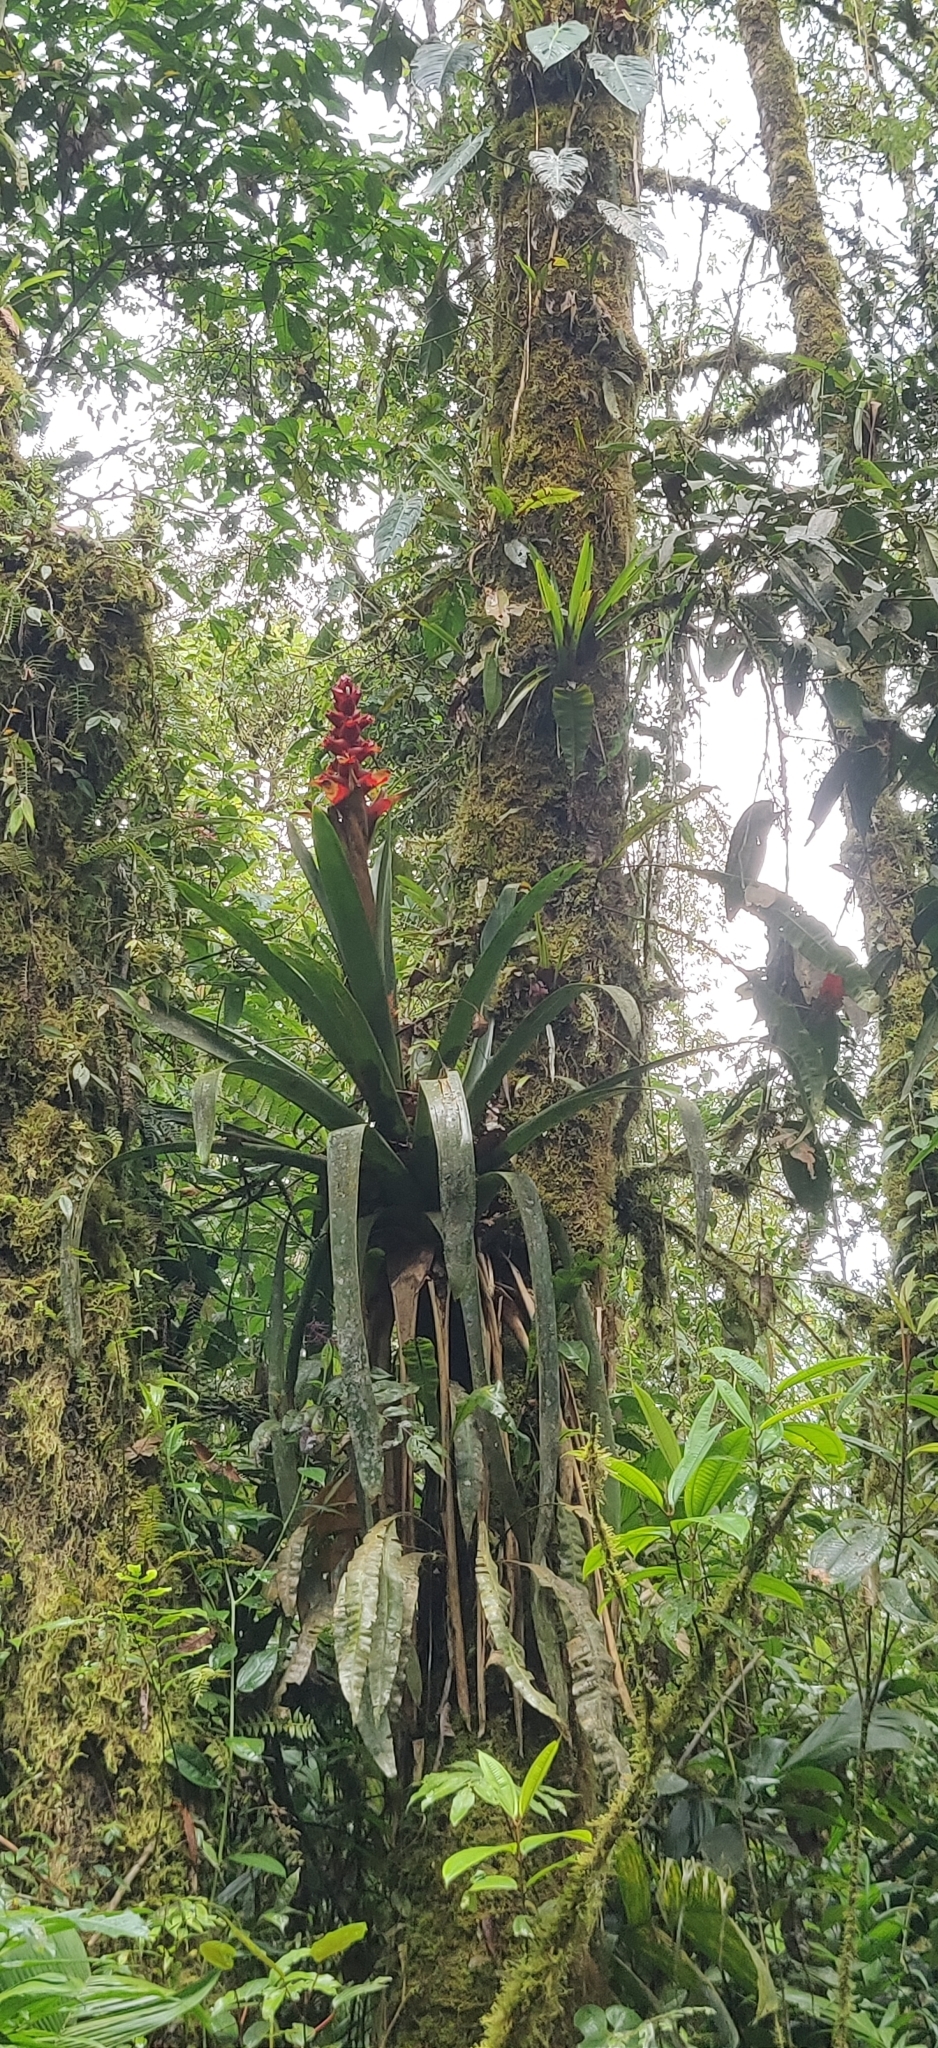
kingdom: Plantae
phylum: Tracheophyta
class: Liliopsida
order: Poales
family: Bromeliaceae
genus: Cipuropsis
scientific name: Cipuropsis capituligera
